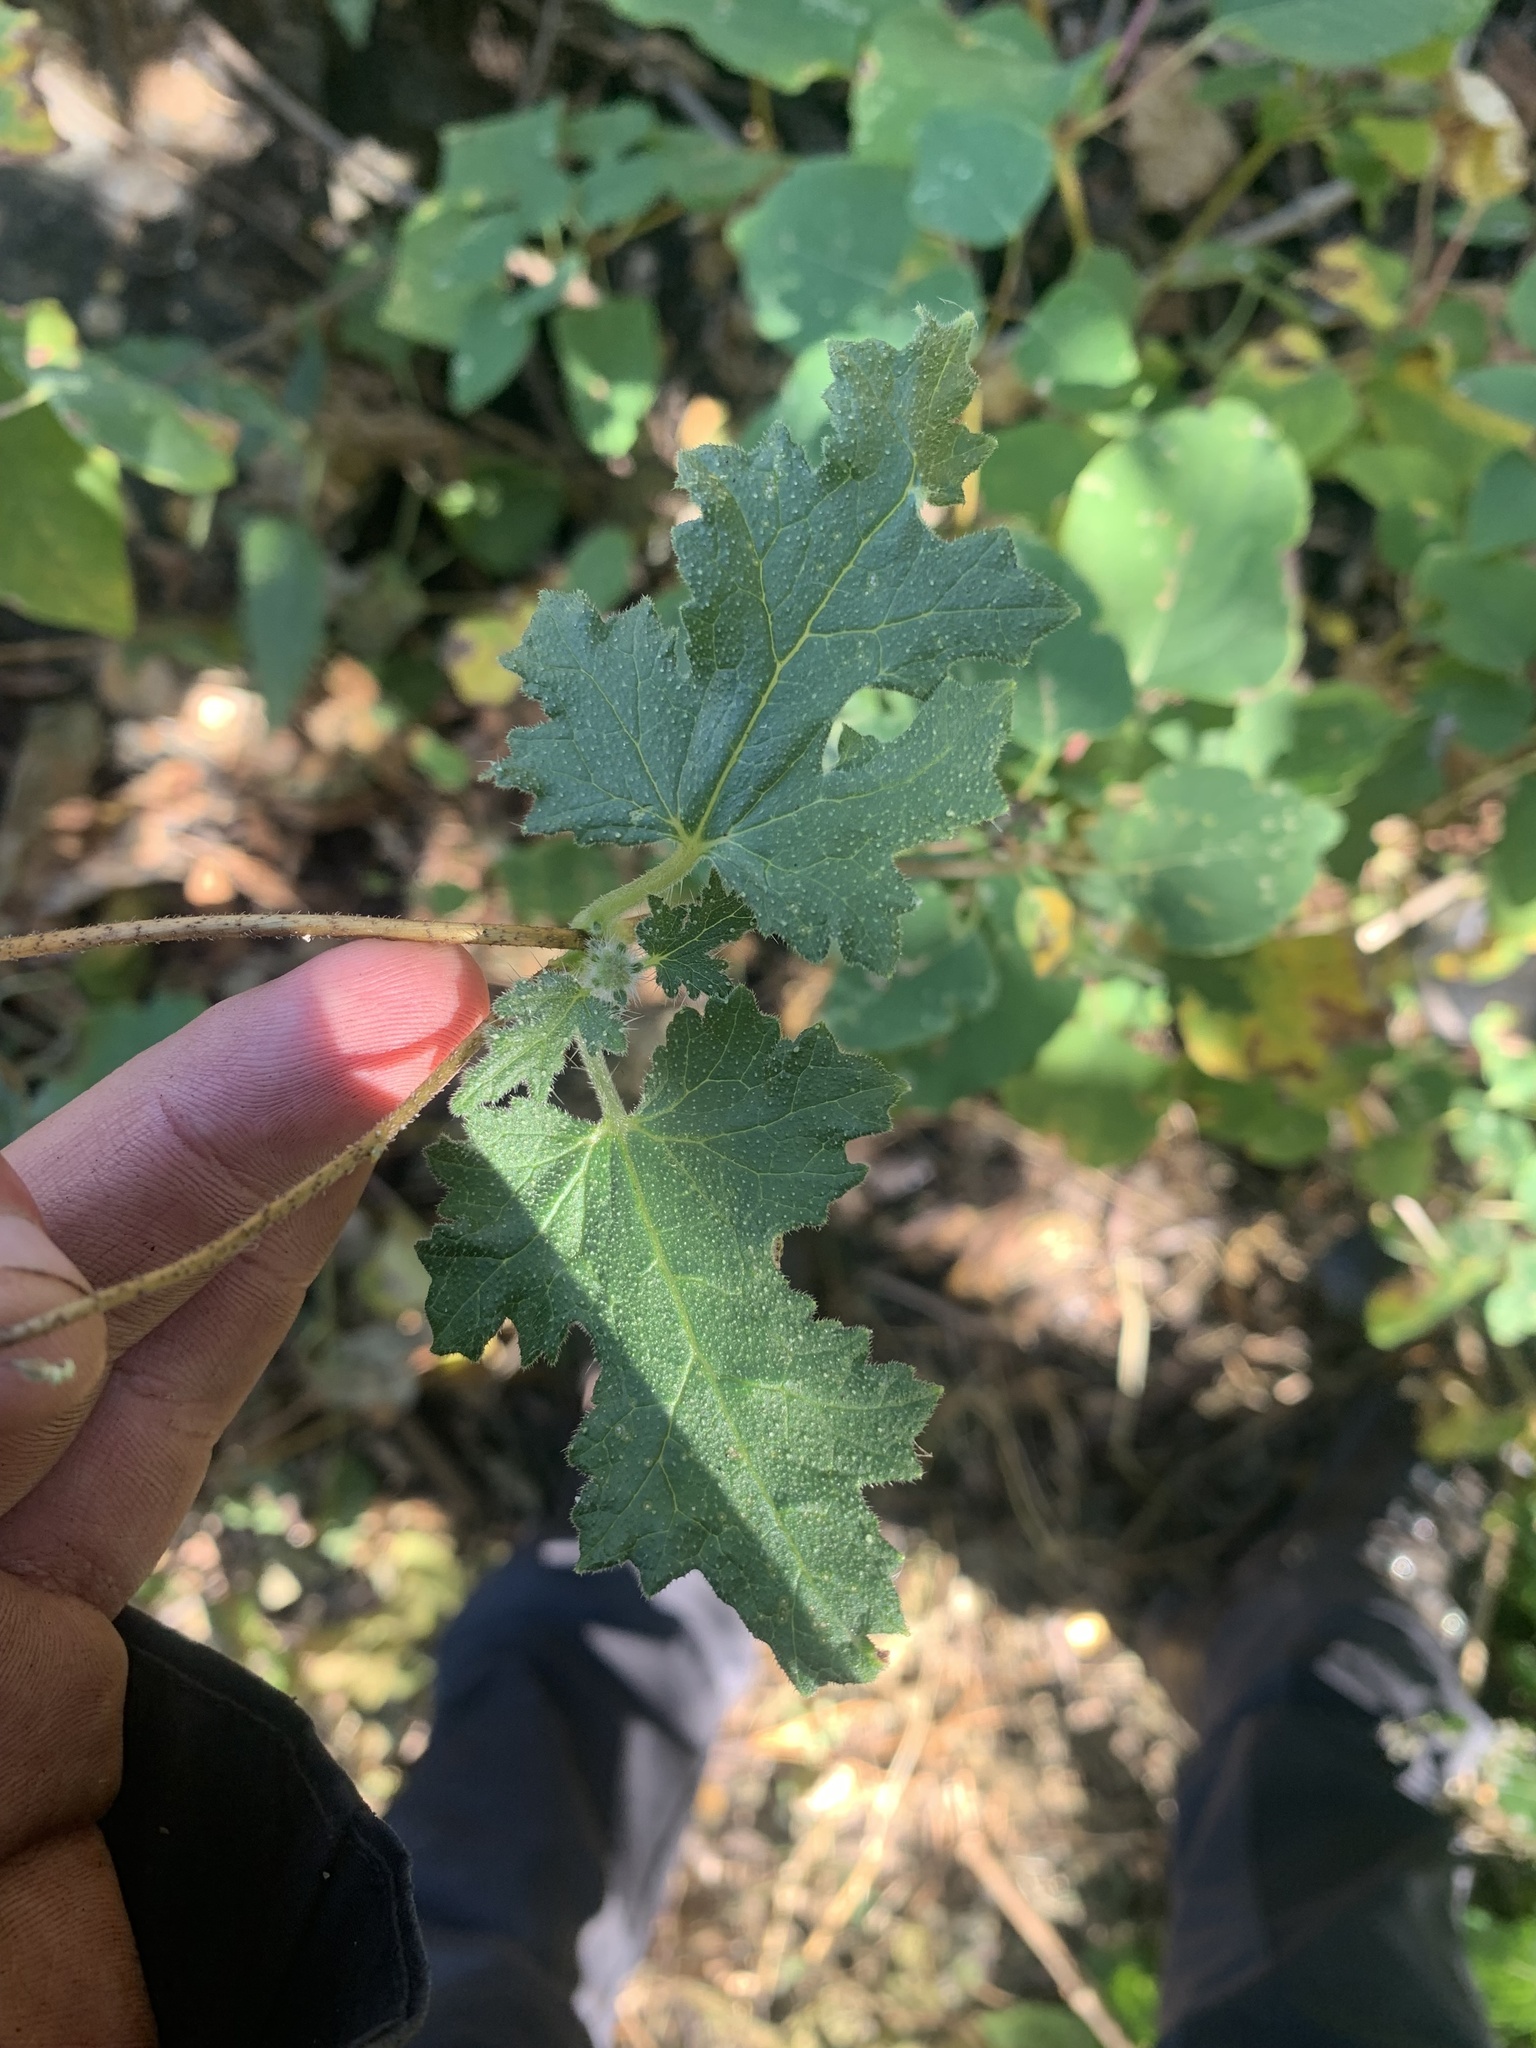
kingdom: Plantae
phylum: Tracheophyta
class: Magnoliopsida
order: Cornales
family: Loasaceae
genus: Caiophora
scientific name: Caiophora cirsiifolia
